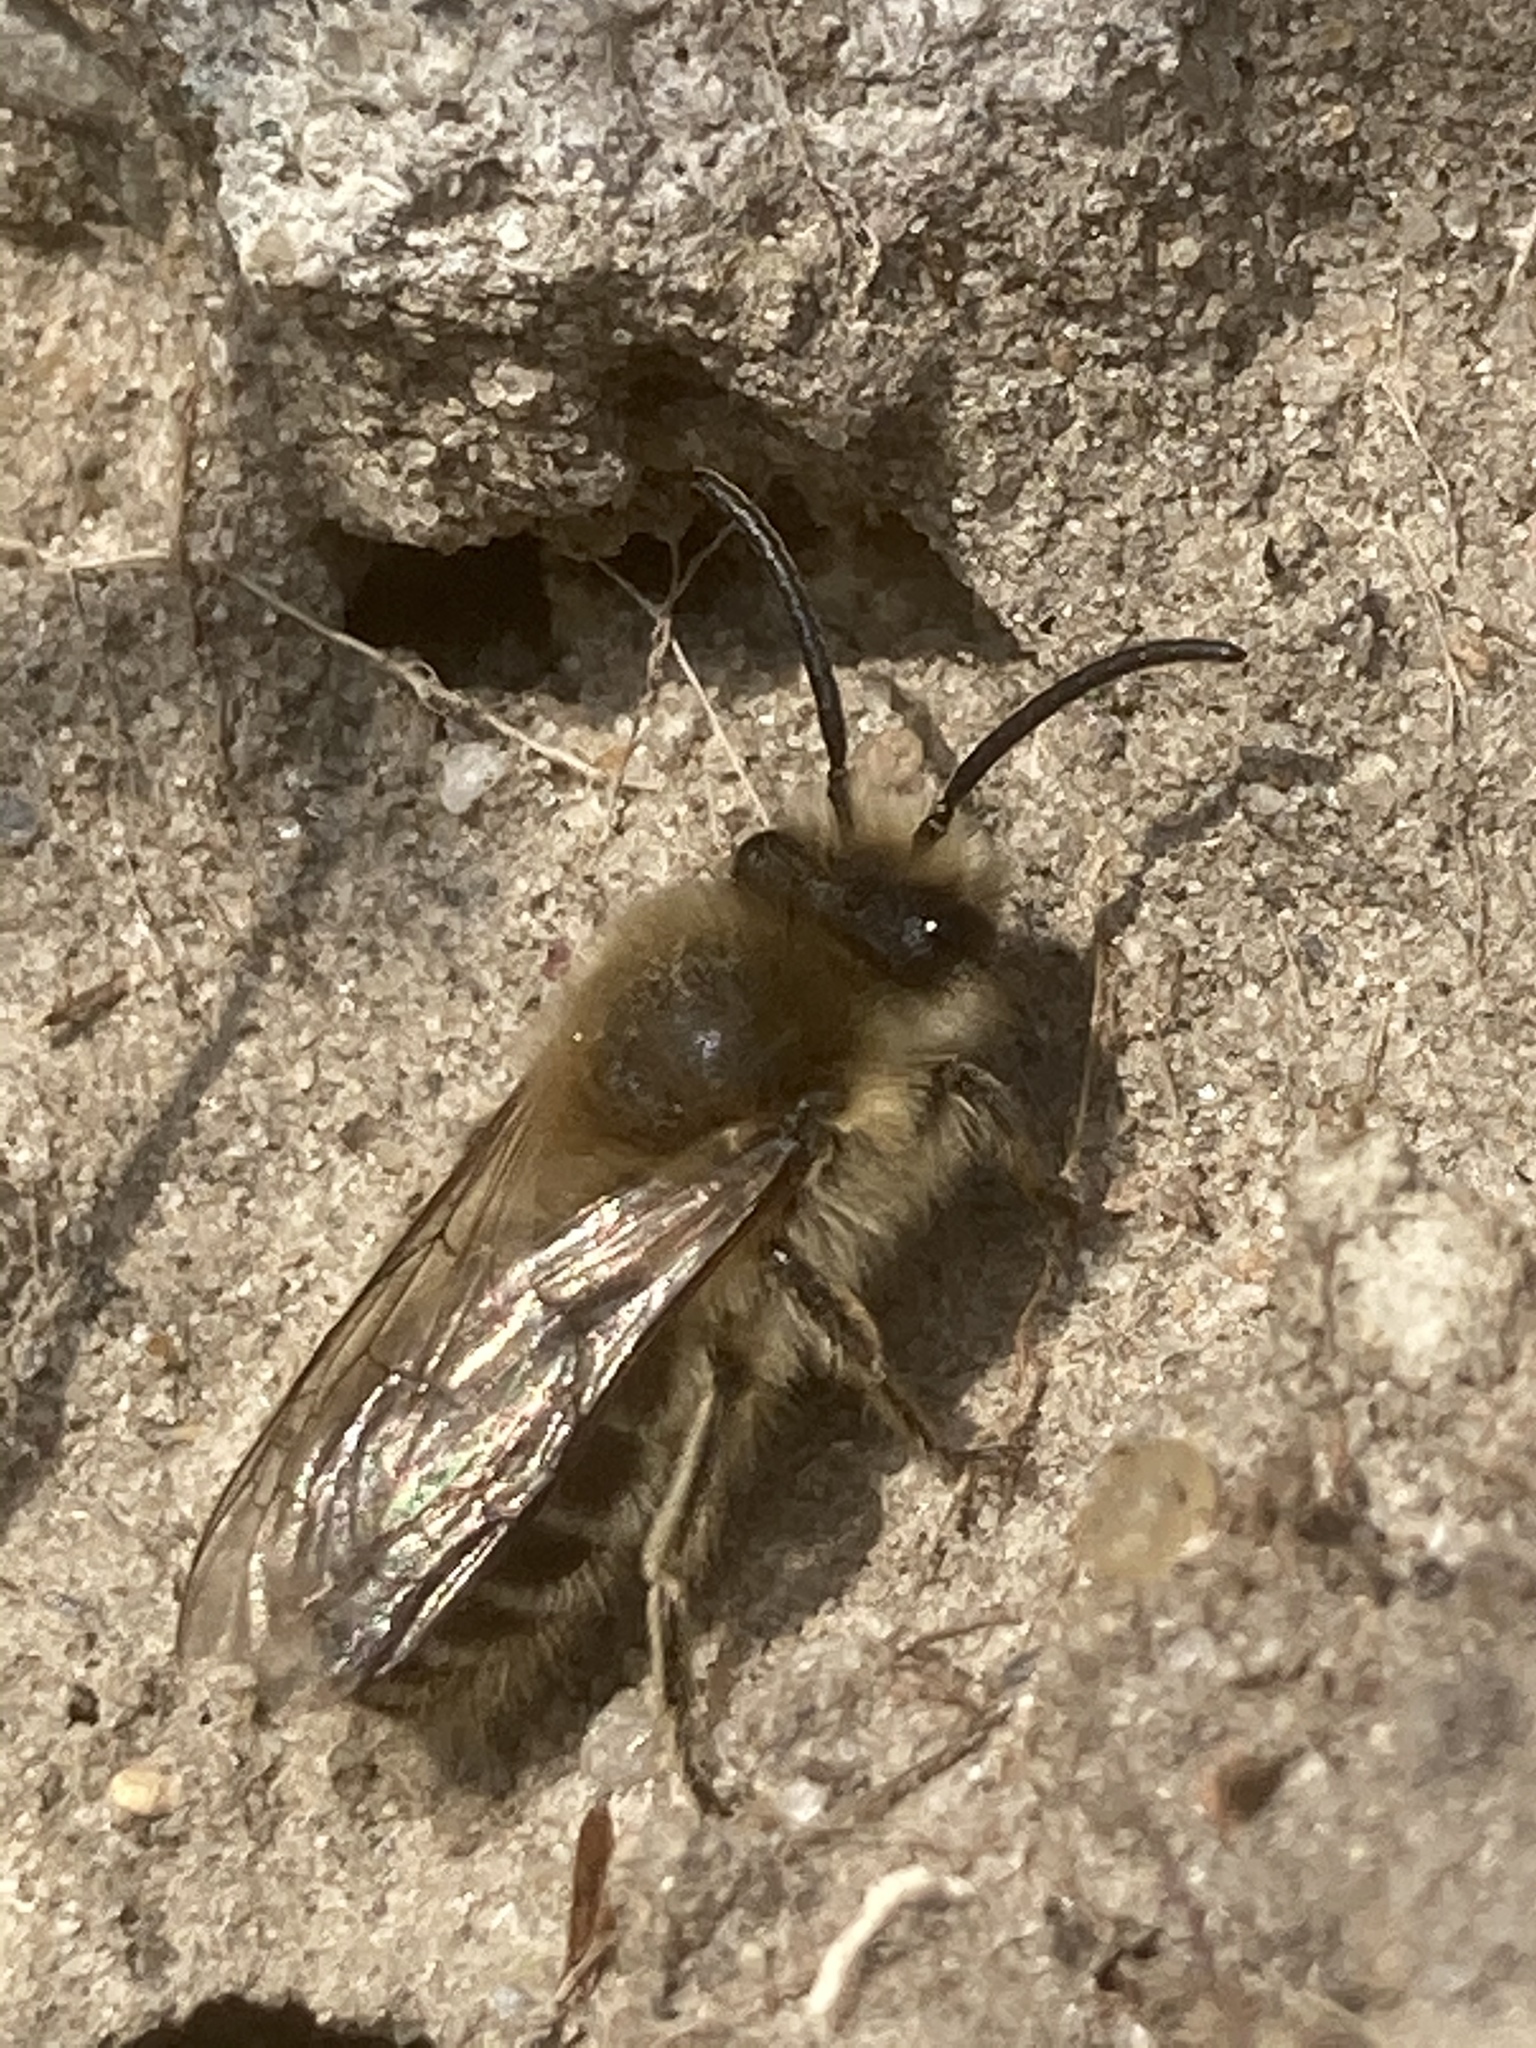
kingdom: Animalia
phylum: Arthropoda
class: Insecta
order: Hymenoptera
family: Colletidae
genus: Colletes
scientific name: Colletes cunicularius
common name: Early colletes
